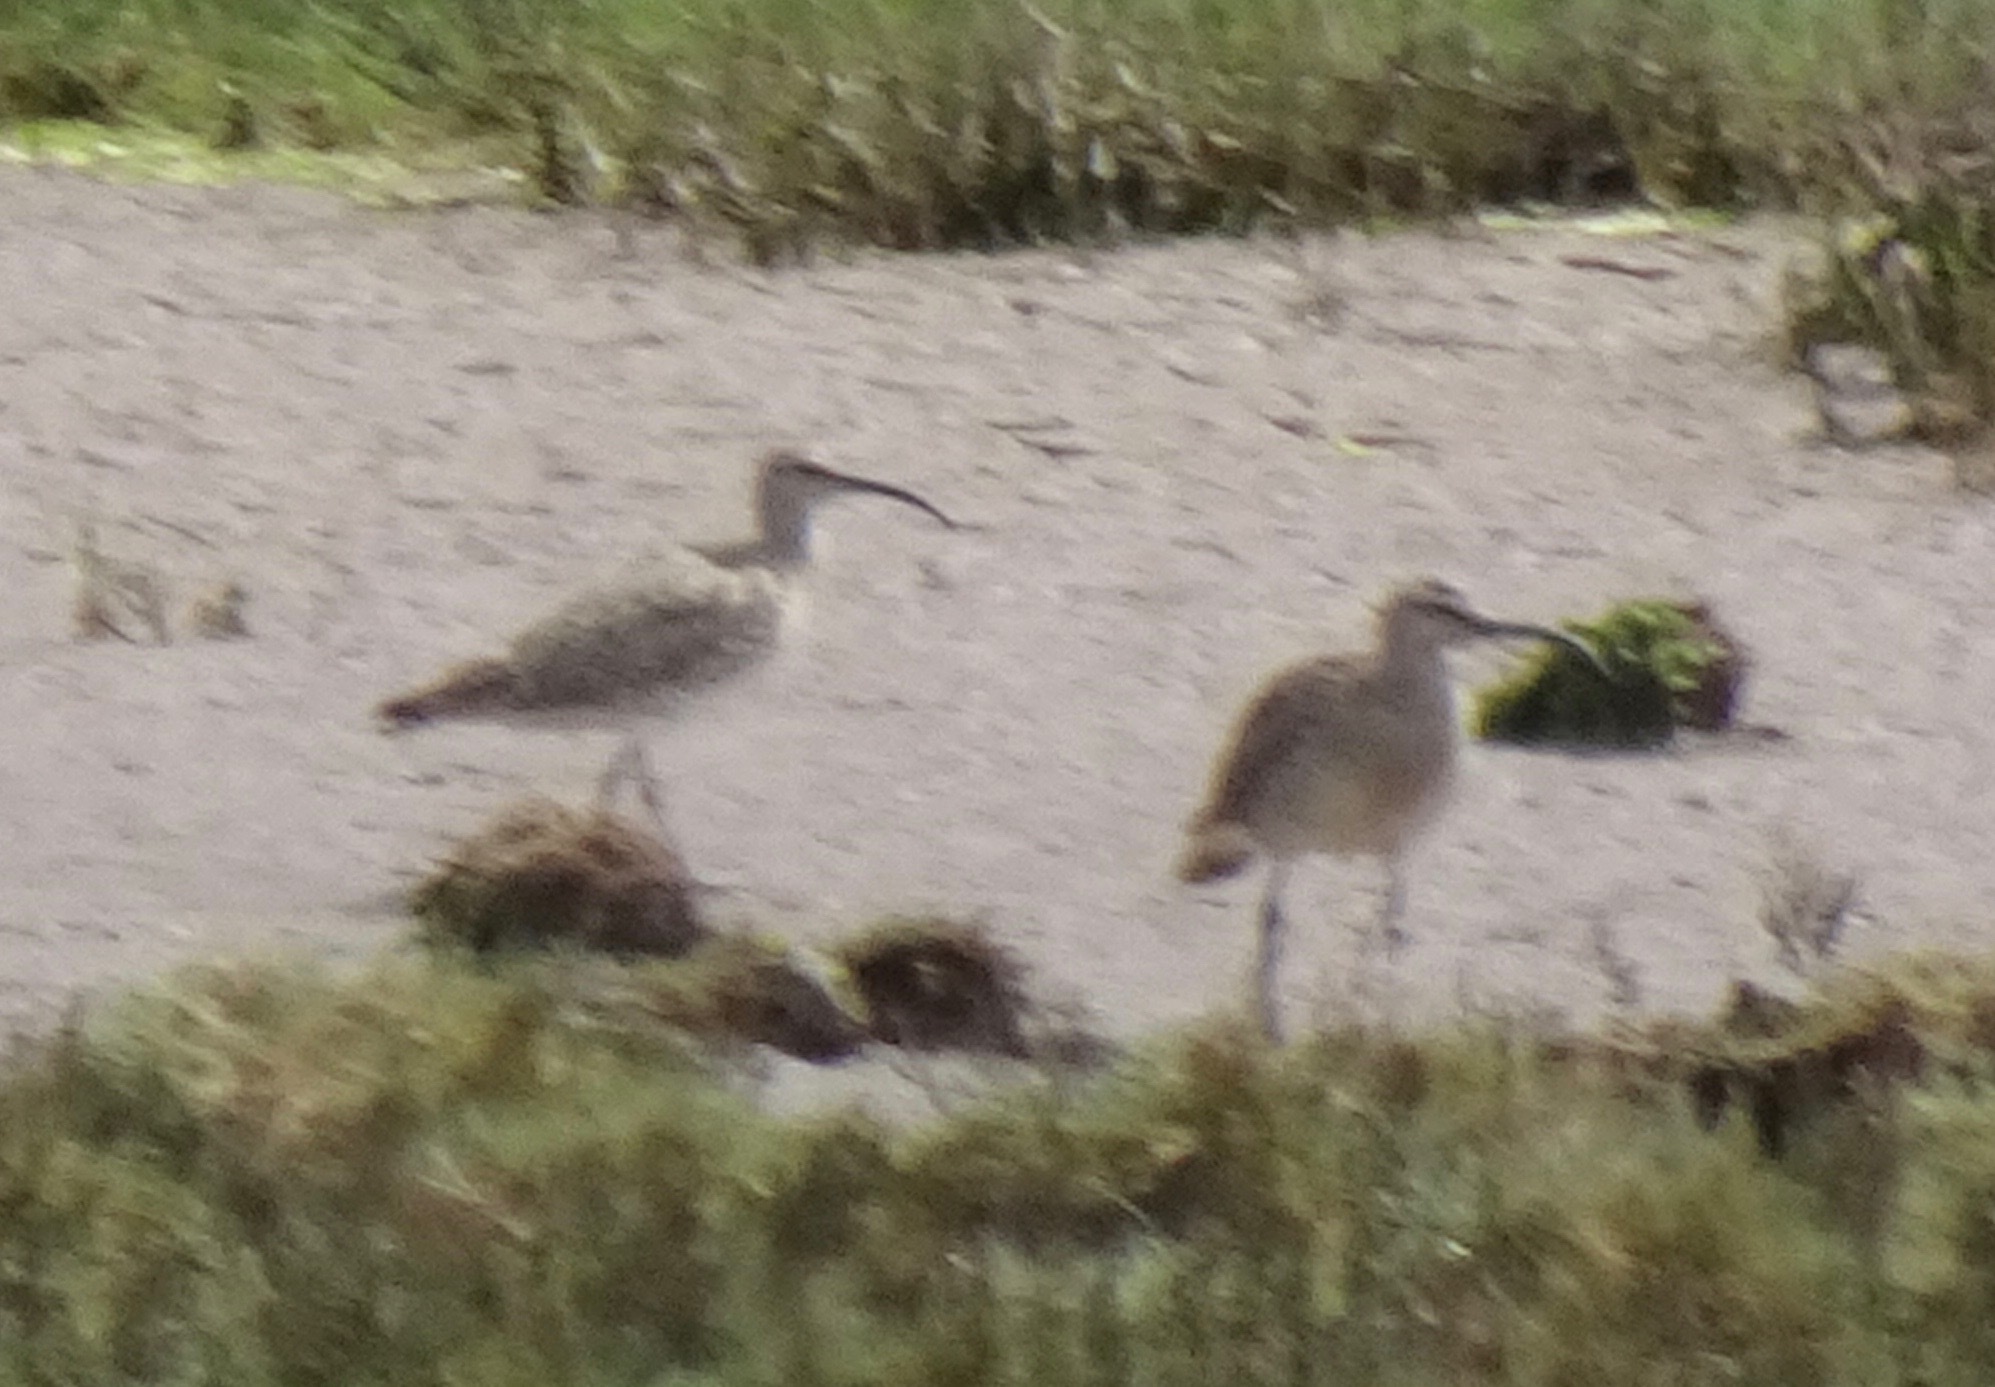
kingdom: Animalia
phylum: Chordata
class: Aves
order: Charadriiformes
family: Scolopacidae
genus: Numenius
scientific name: Numenius phaeopus
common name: Whimbrel
